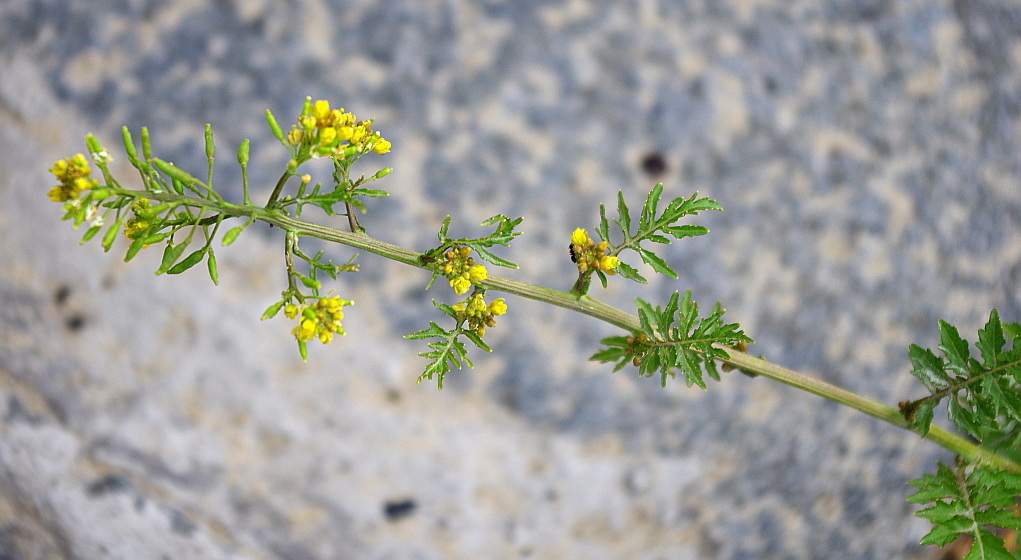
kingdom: Plantae
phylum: Tracheophyta
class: Magnoliopsida
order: Brassicales
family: Brassicaceae
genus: Rorippa
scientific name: Rorippa palustris
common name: Marsh yellow-cress
